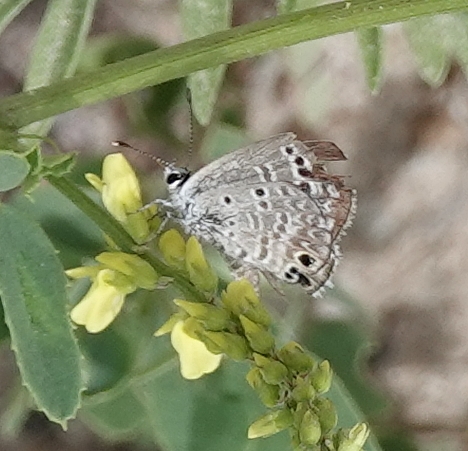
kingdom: Animalia
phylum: Arthropoda
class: Insecta
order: Lepidoptera
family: Lycaenidae
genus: Echinargus
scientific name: Echinargus isola
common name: Reakirt's blue
